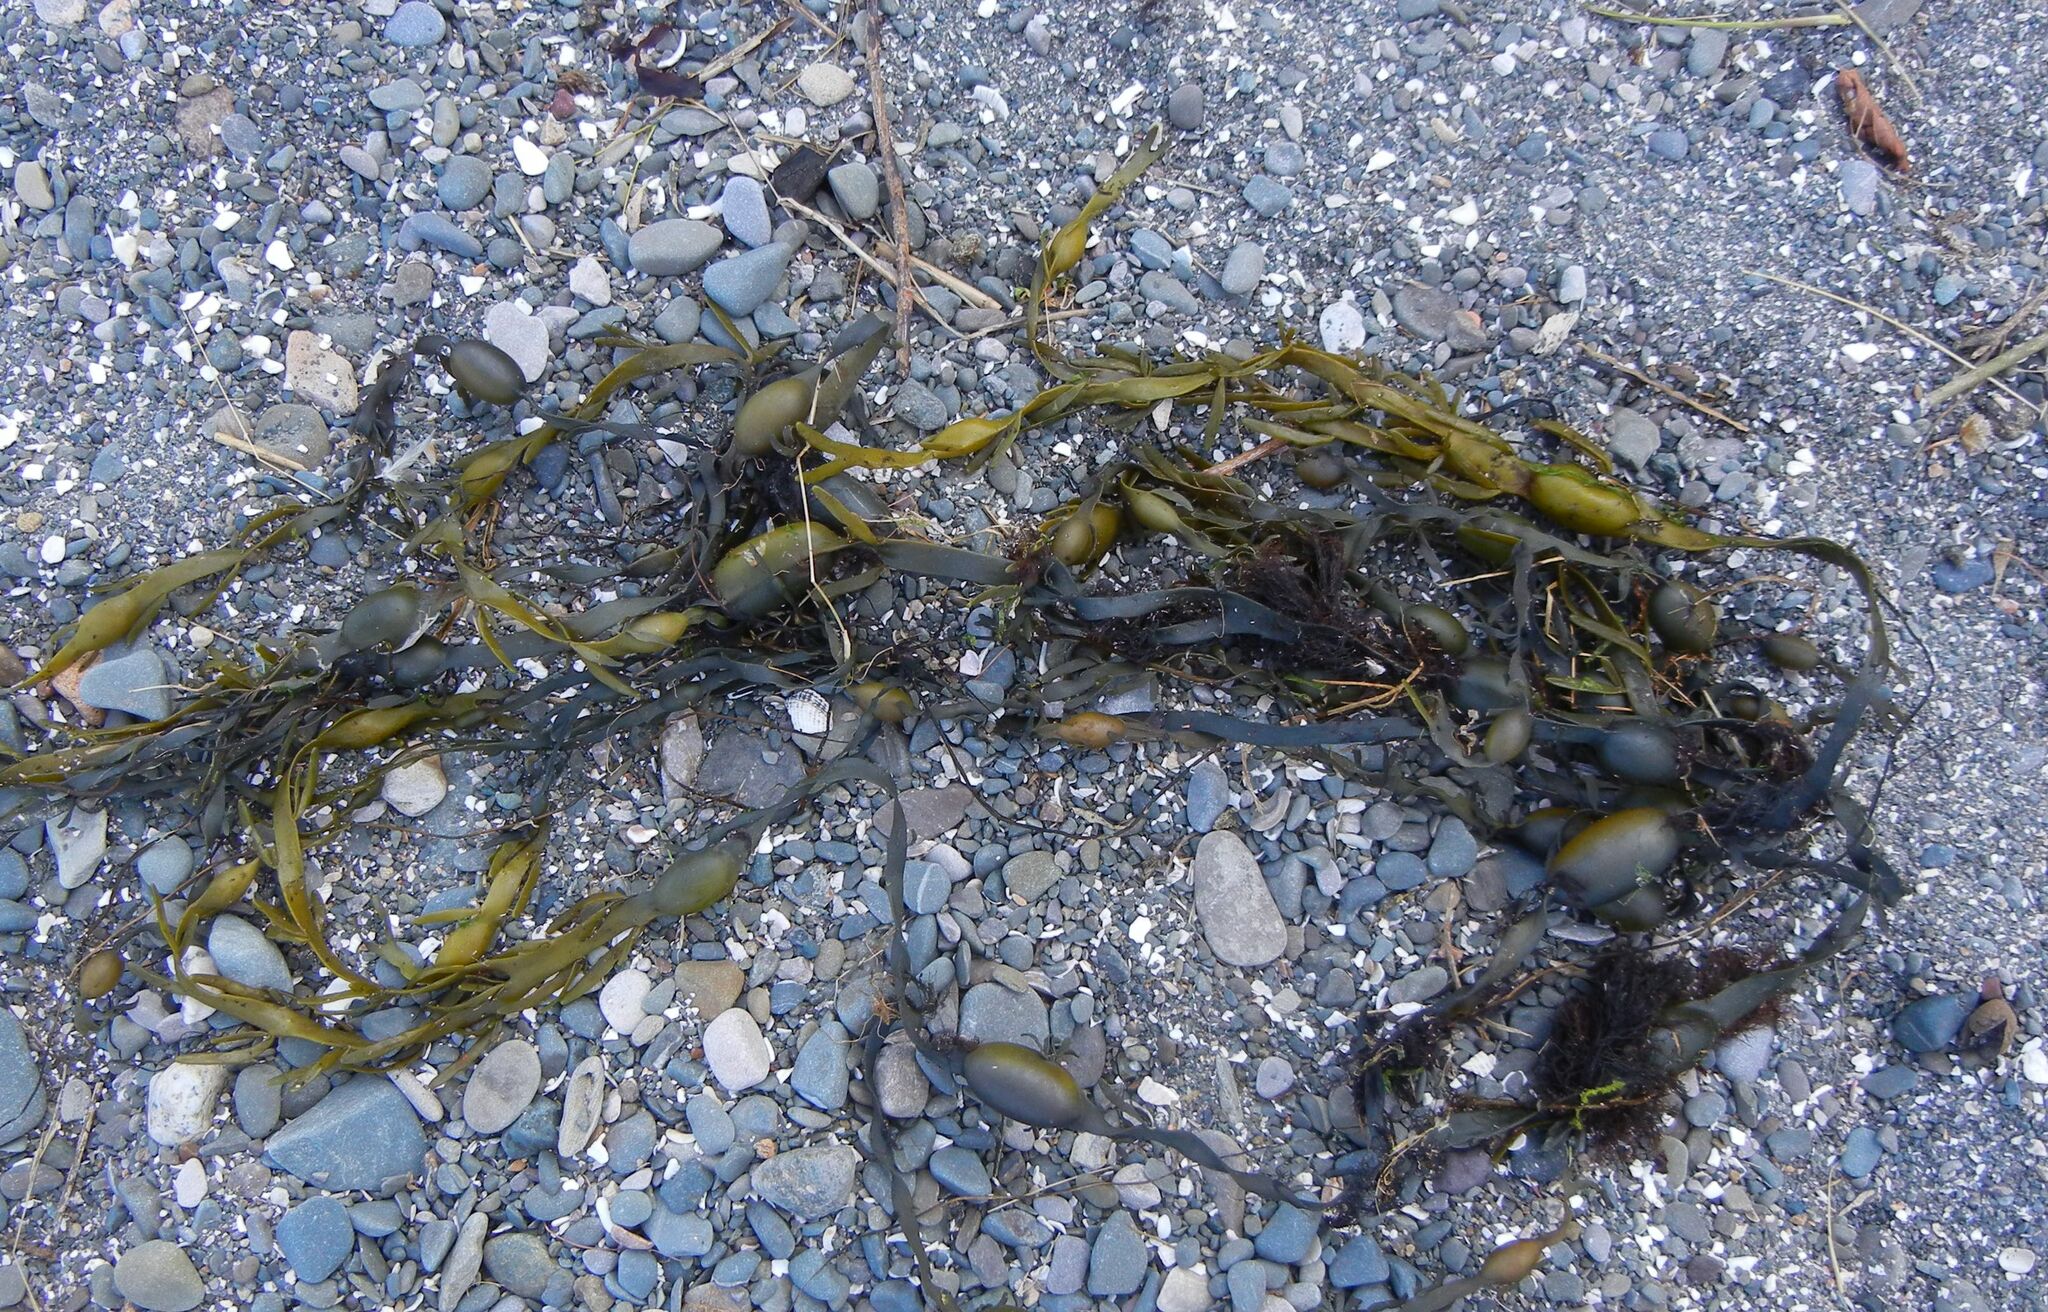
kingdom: Chromista
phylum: Ochrophyta
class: Phaeophyceae
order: Fucales
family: Fucaceae
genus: Ascophyllum
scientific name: Ascophyllum nodosum
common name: Knotted wrack
